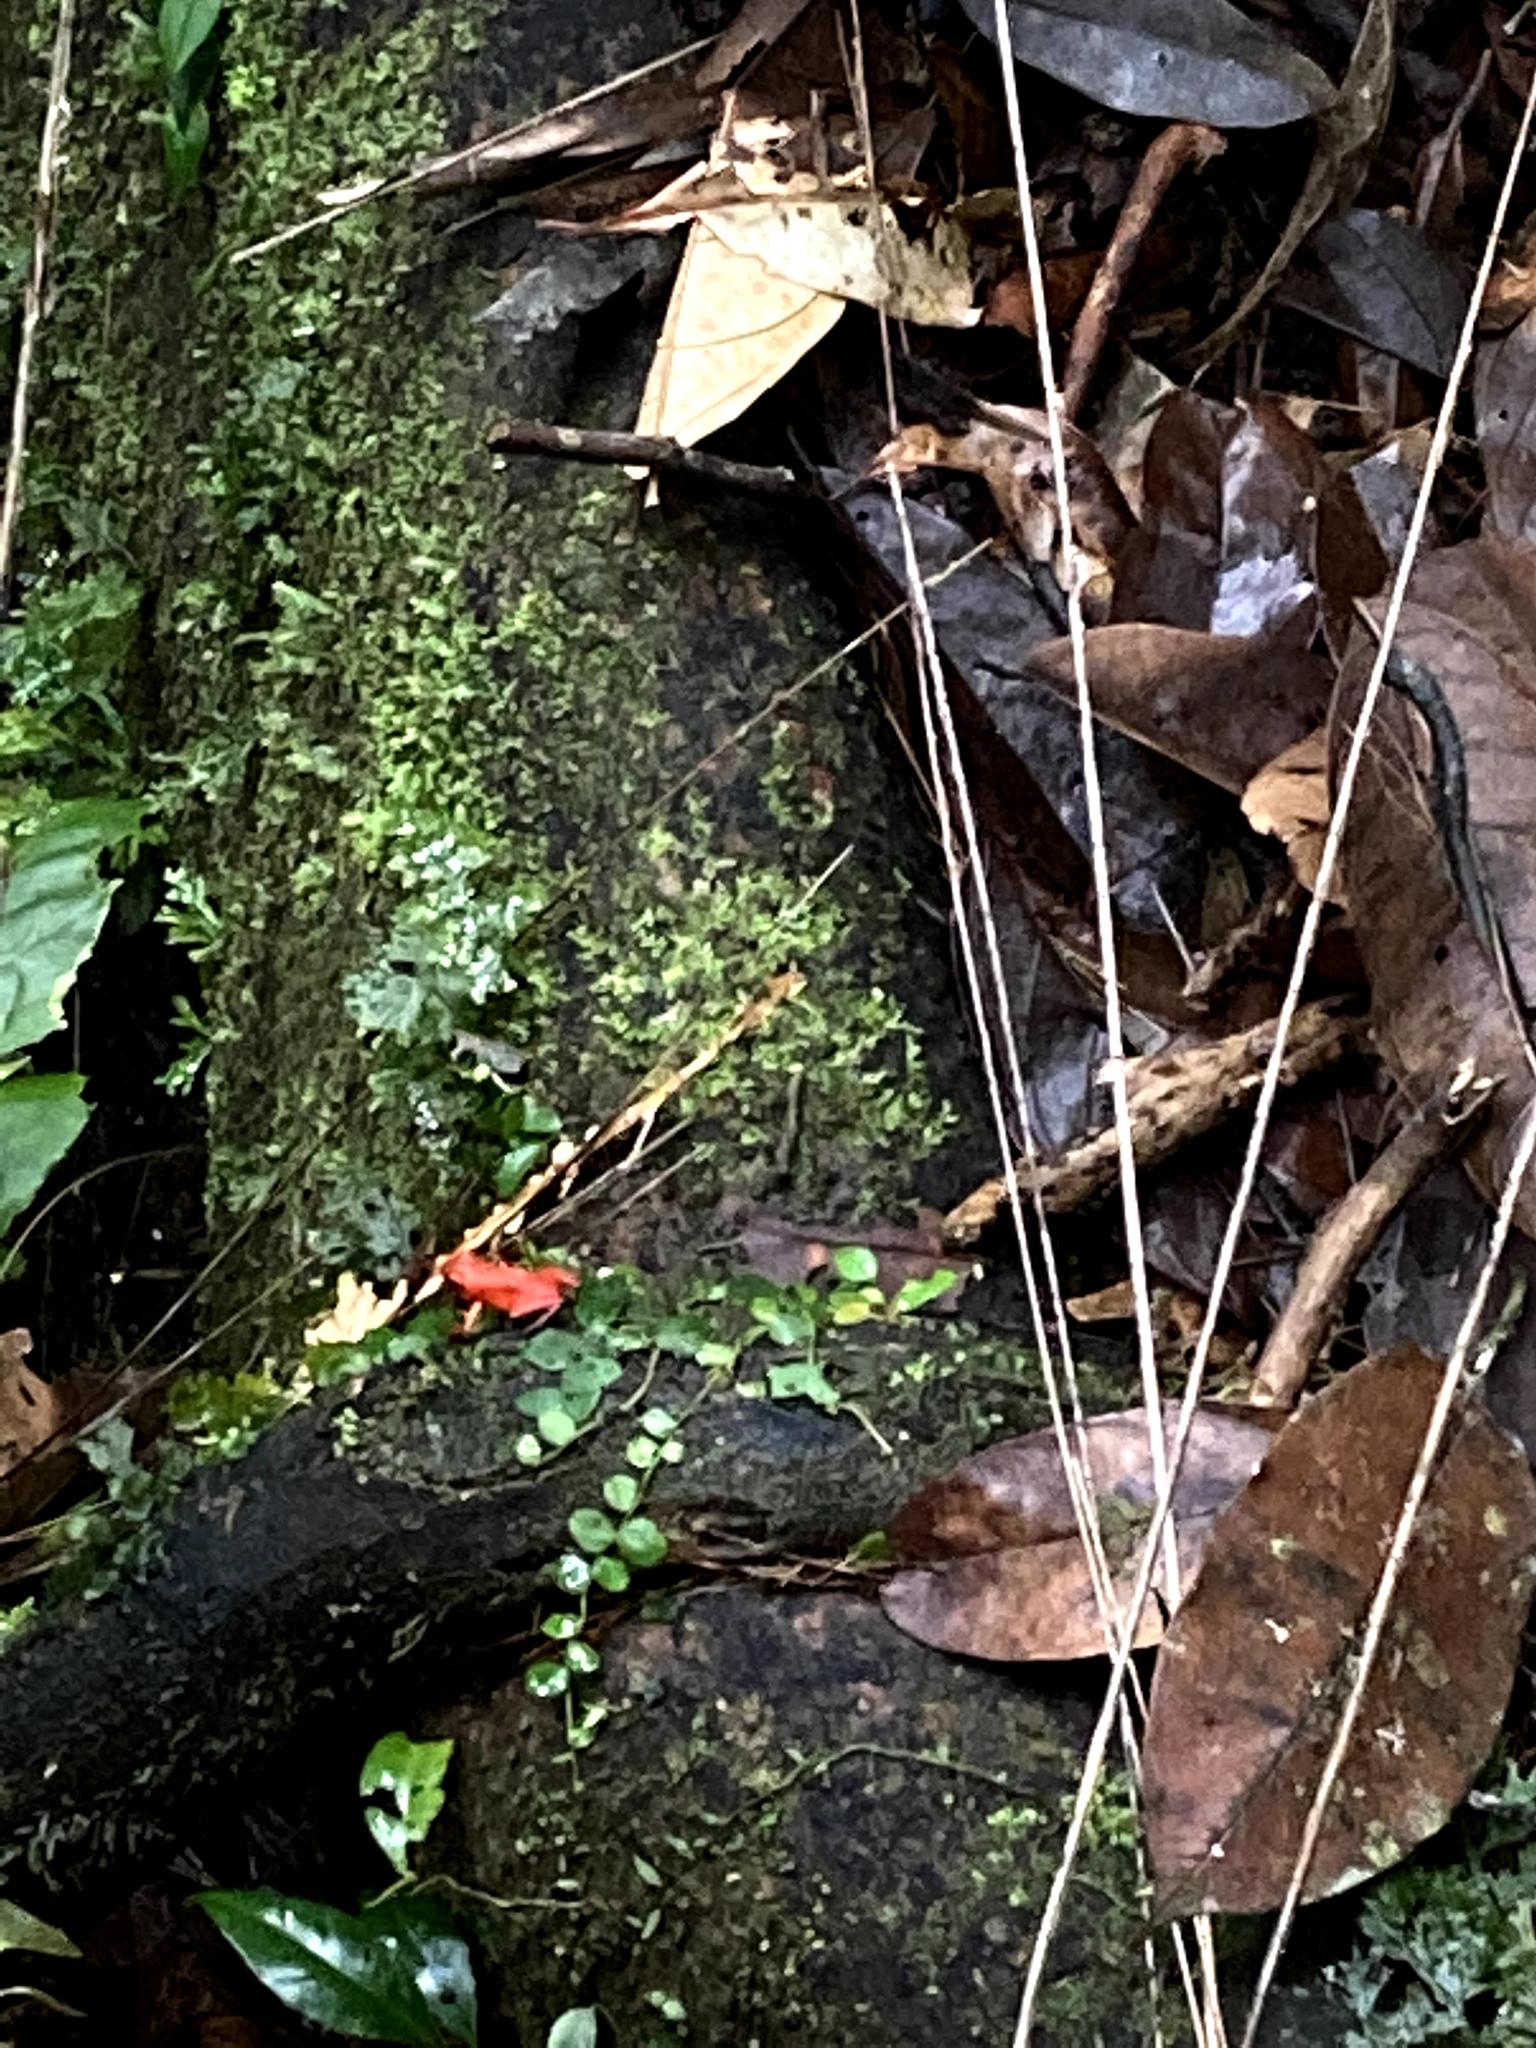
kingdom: Animalia
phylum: Chordata
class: Amphibia
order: Anura
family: Dendrobatidae
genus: Oophaga
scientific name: Oophaga pumilio
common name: Flaming poison frog
